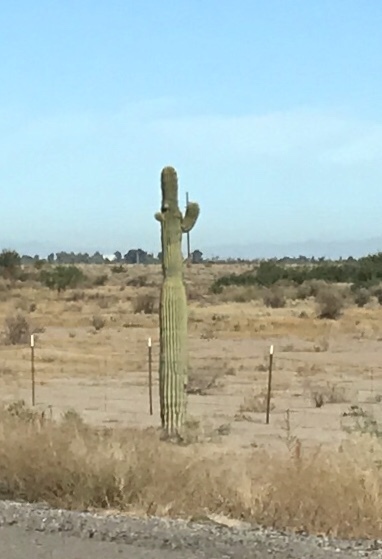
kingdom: Plantae
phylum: Tracheophyta
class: Magnoliopsida
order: Caryophyllales
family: Cactaceae
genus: Carnegiea
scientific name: Carnegiea gigantea
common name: Saguaro
